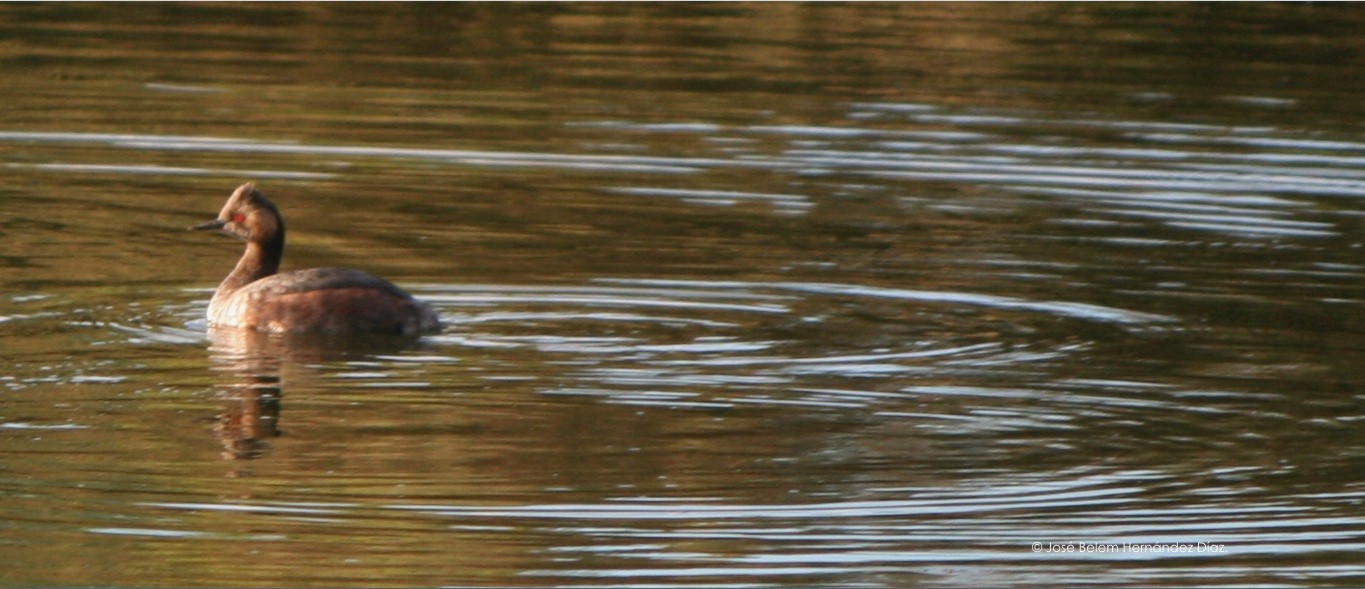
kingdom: Animalia
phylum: Chordata
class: Aves
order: Podicipediformes
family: Podicipedidae
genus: Podiceps
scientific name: Podiceps nigricollis
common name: Black-necked grebe
